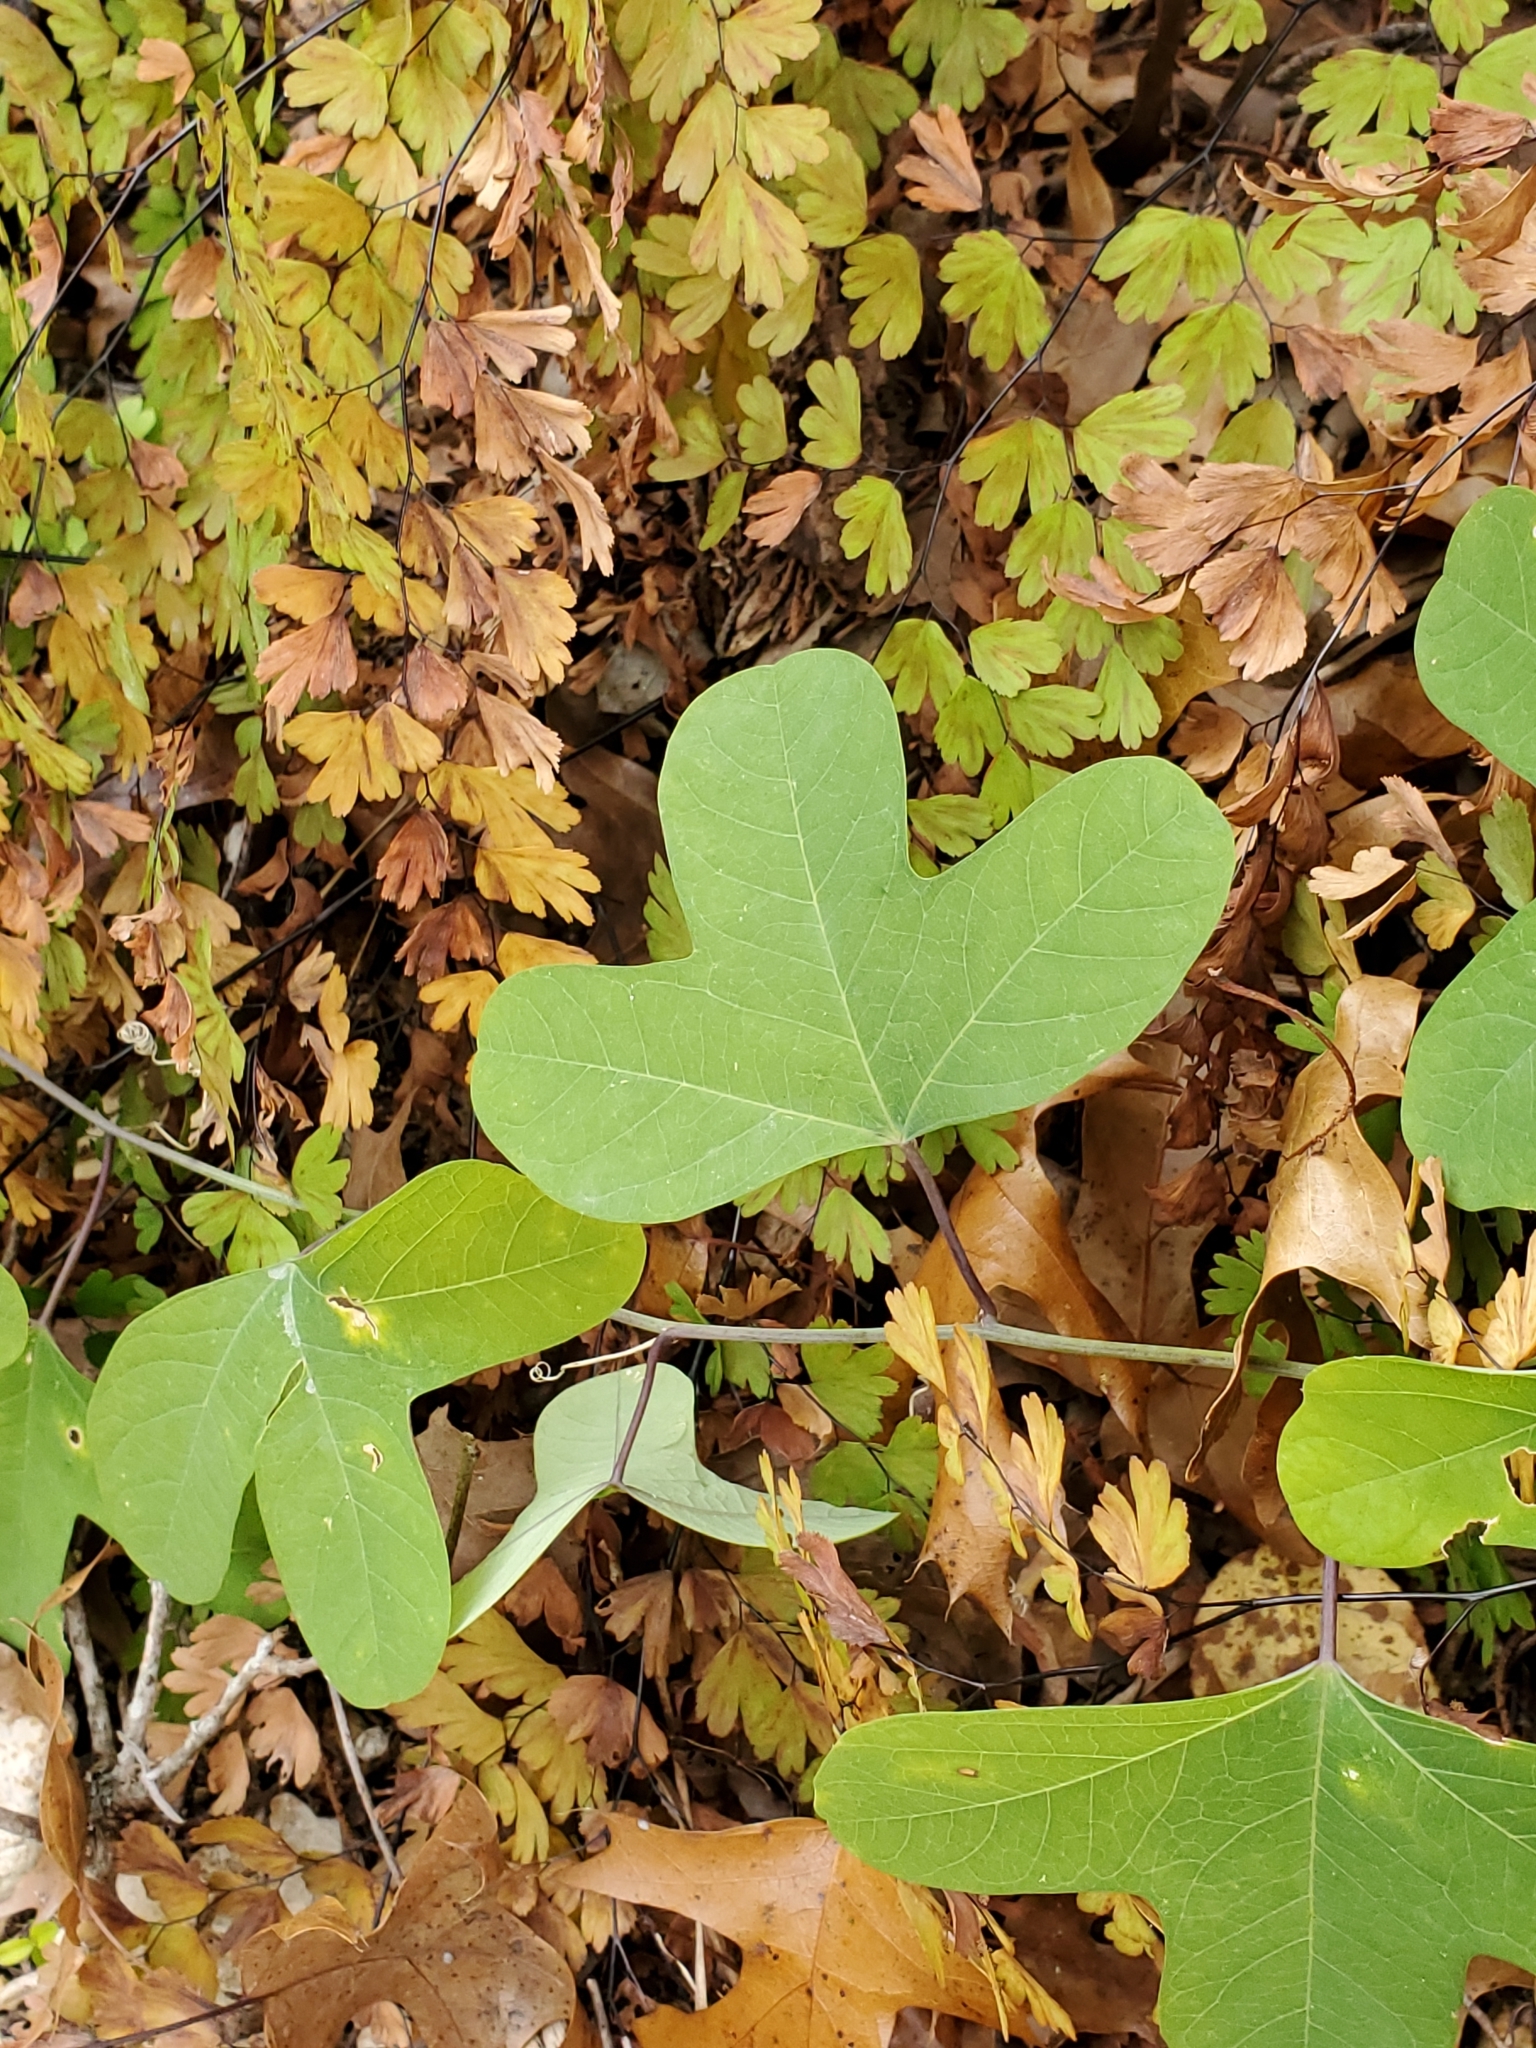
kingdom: Plantae
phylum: Tracheophyta
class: Magnoliopsida
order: Malpighiales
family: Passifloraceae
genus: Passiflora
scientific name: Passiflora affinis
